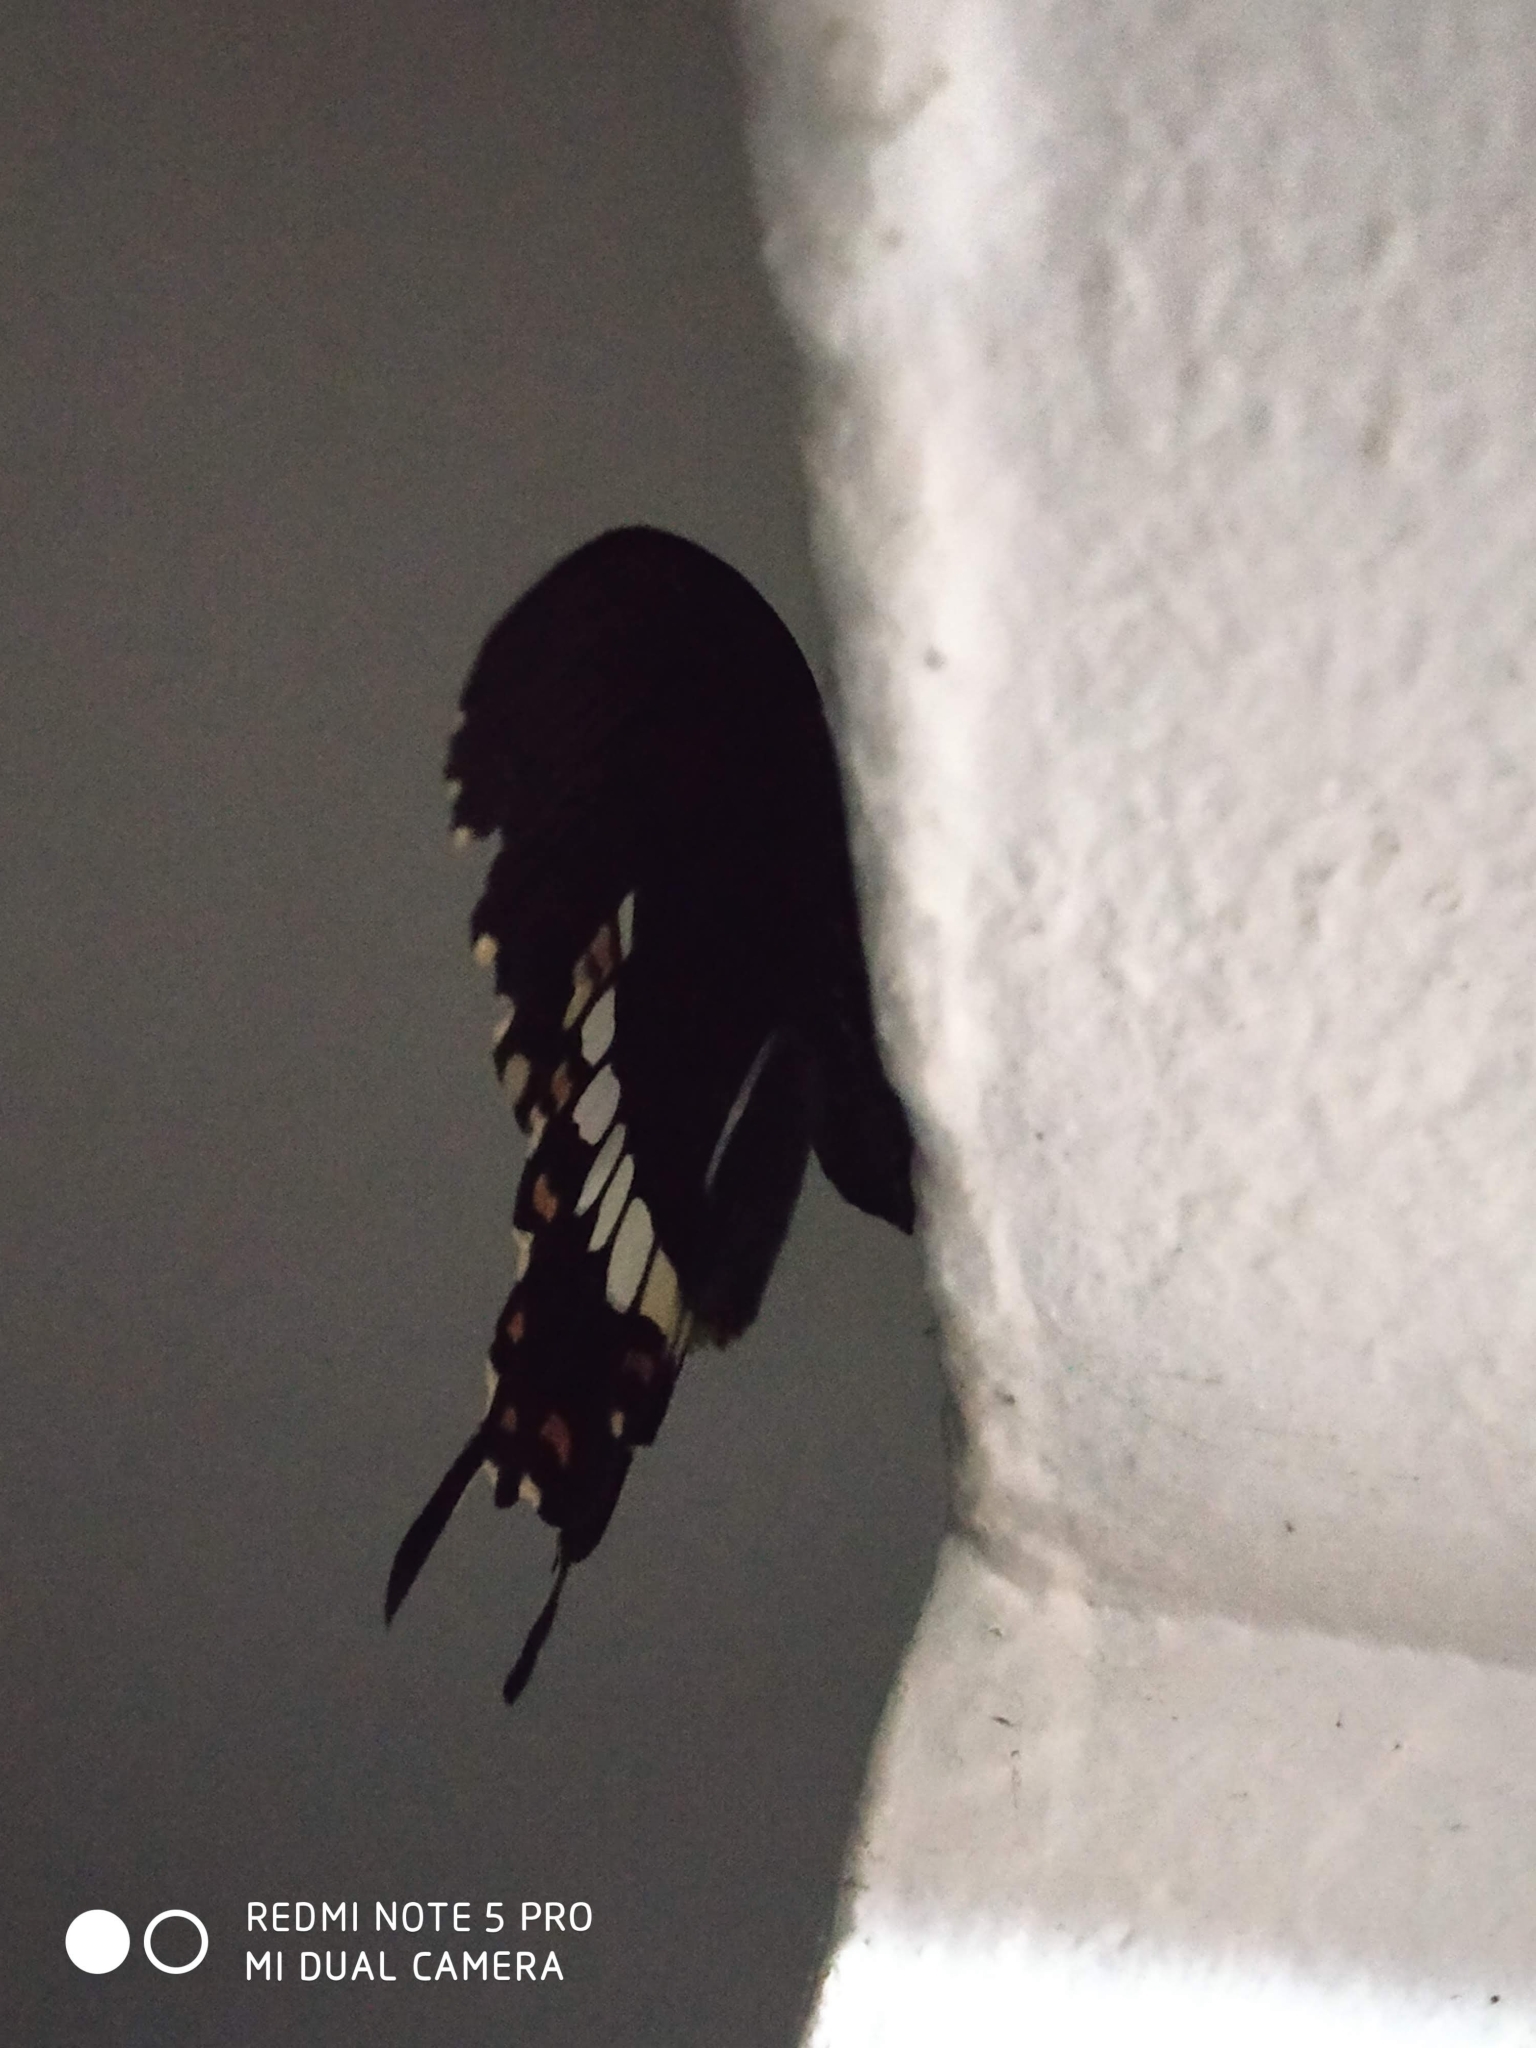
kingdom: Animalia
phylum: Arthropoda
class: Insecta
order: Lepidoptera
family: Papilionidae
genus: Papilio
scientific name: Papilio polytes
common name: Common mormon
